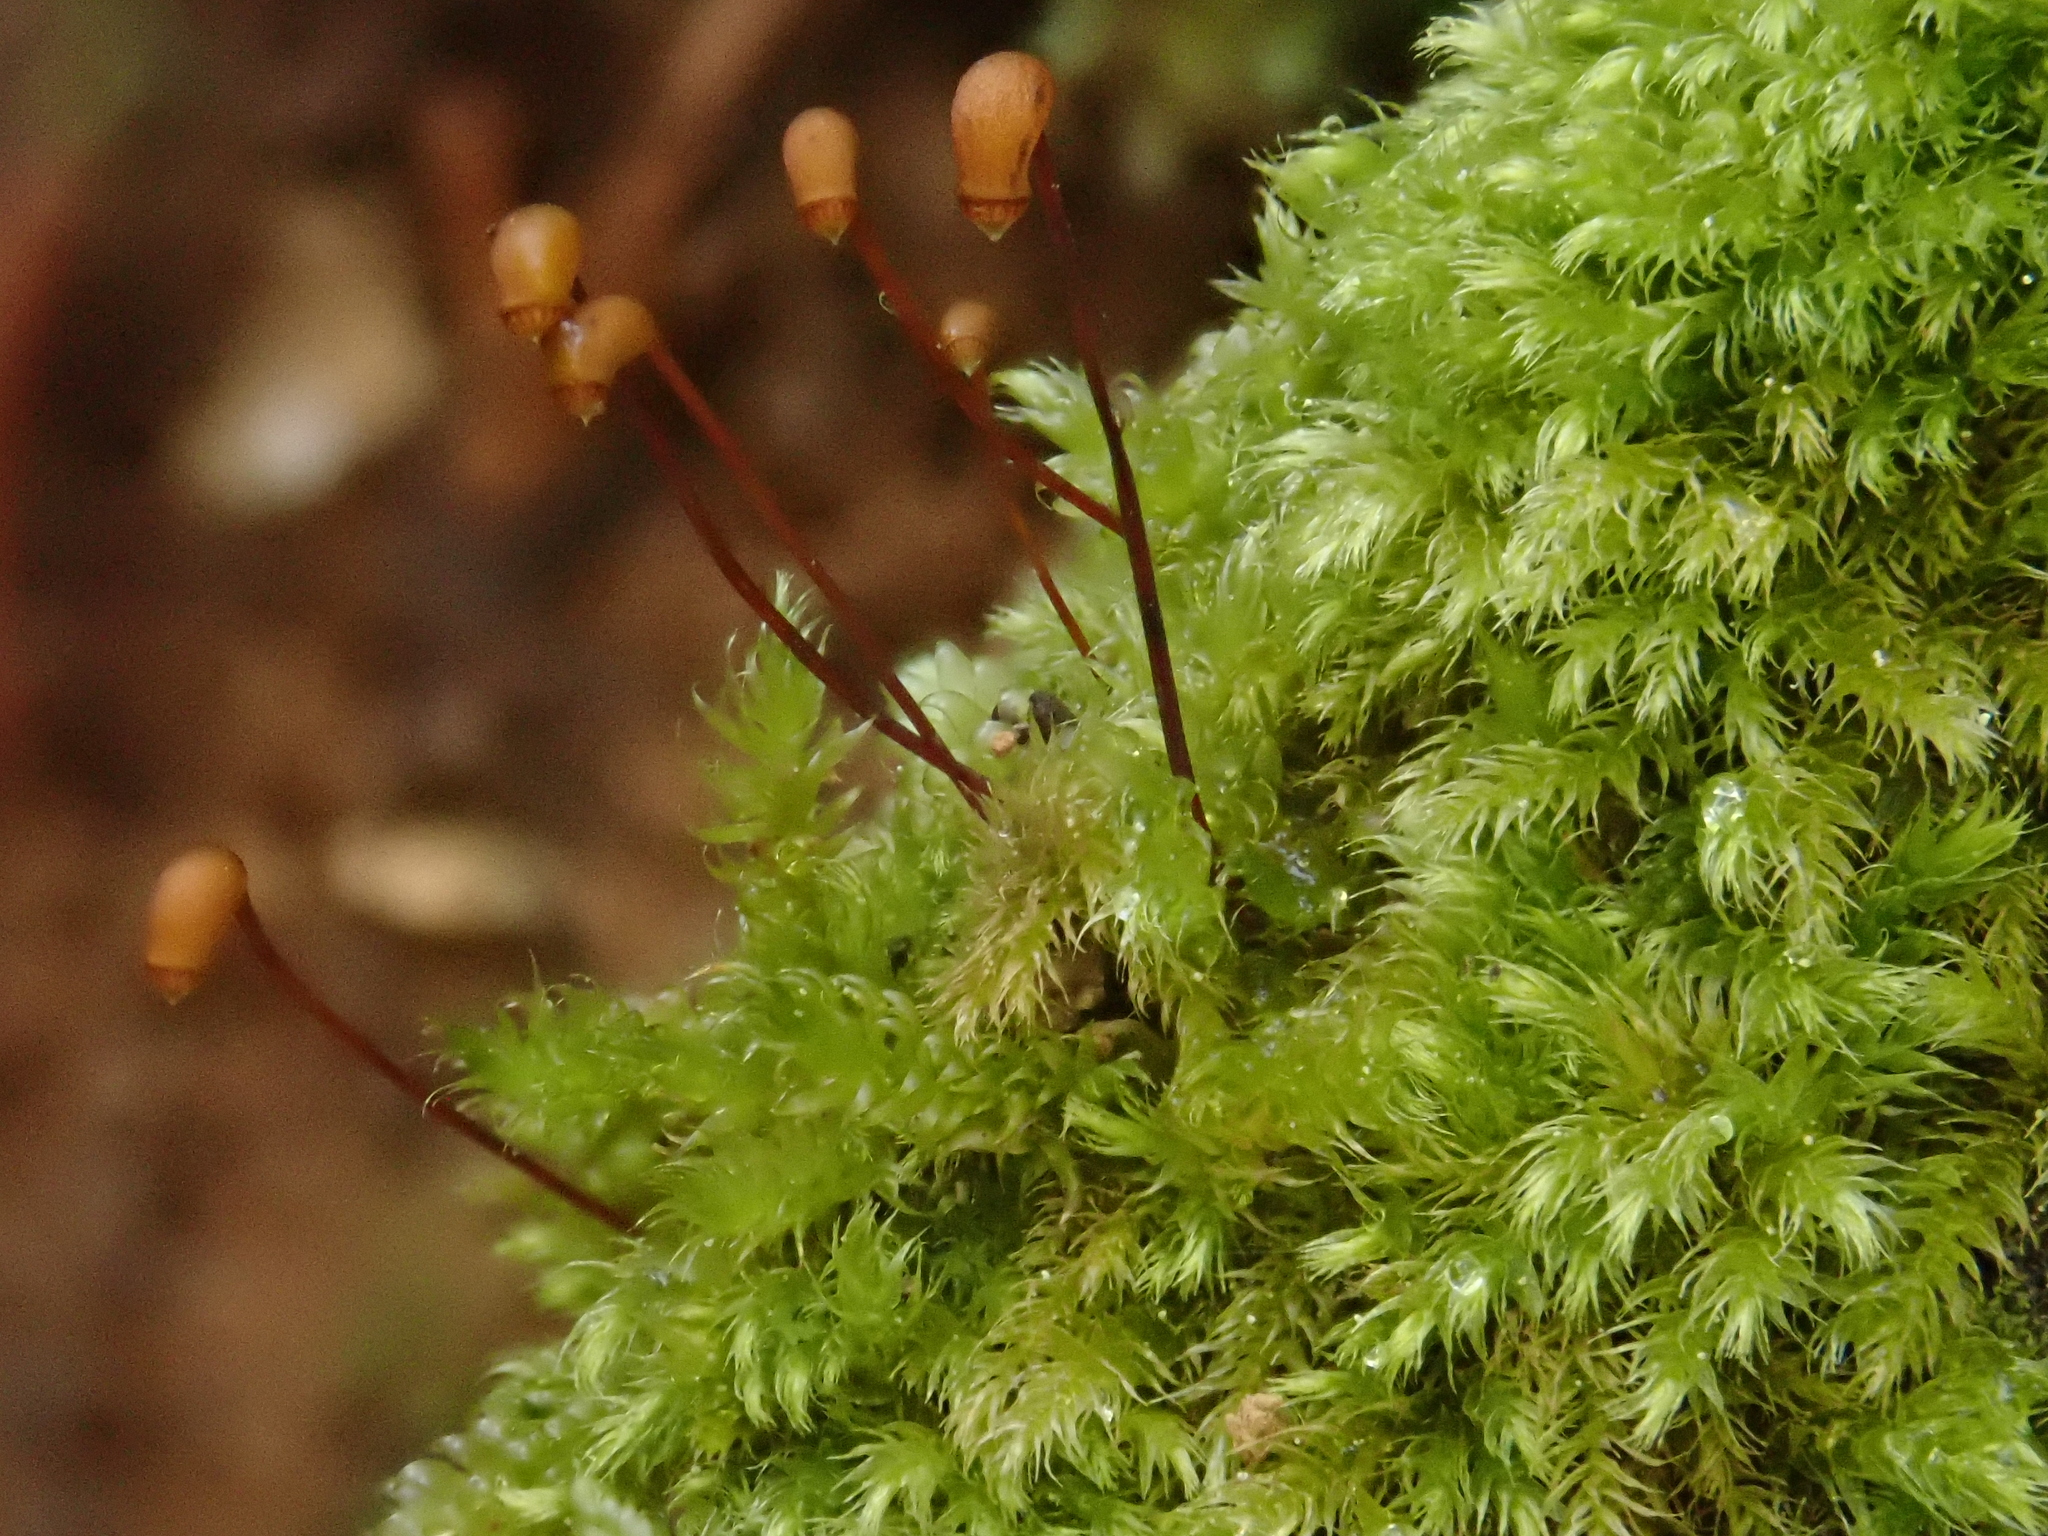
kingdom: Plantae
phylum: Bryophyta
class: Bryopsida
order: Hypnales
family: Brachytheciaceae
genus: Brachytheciastrum
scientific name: Brachytheciastrum velutinum
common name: Velvet feather-moss
